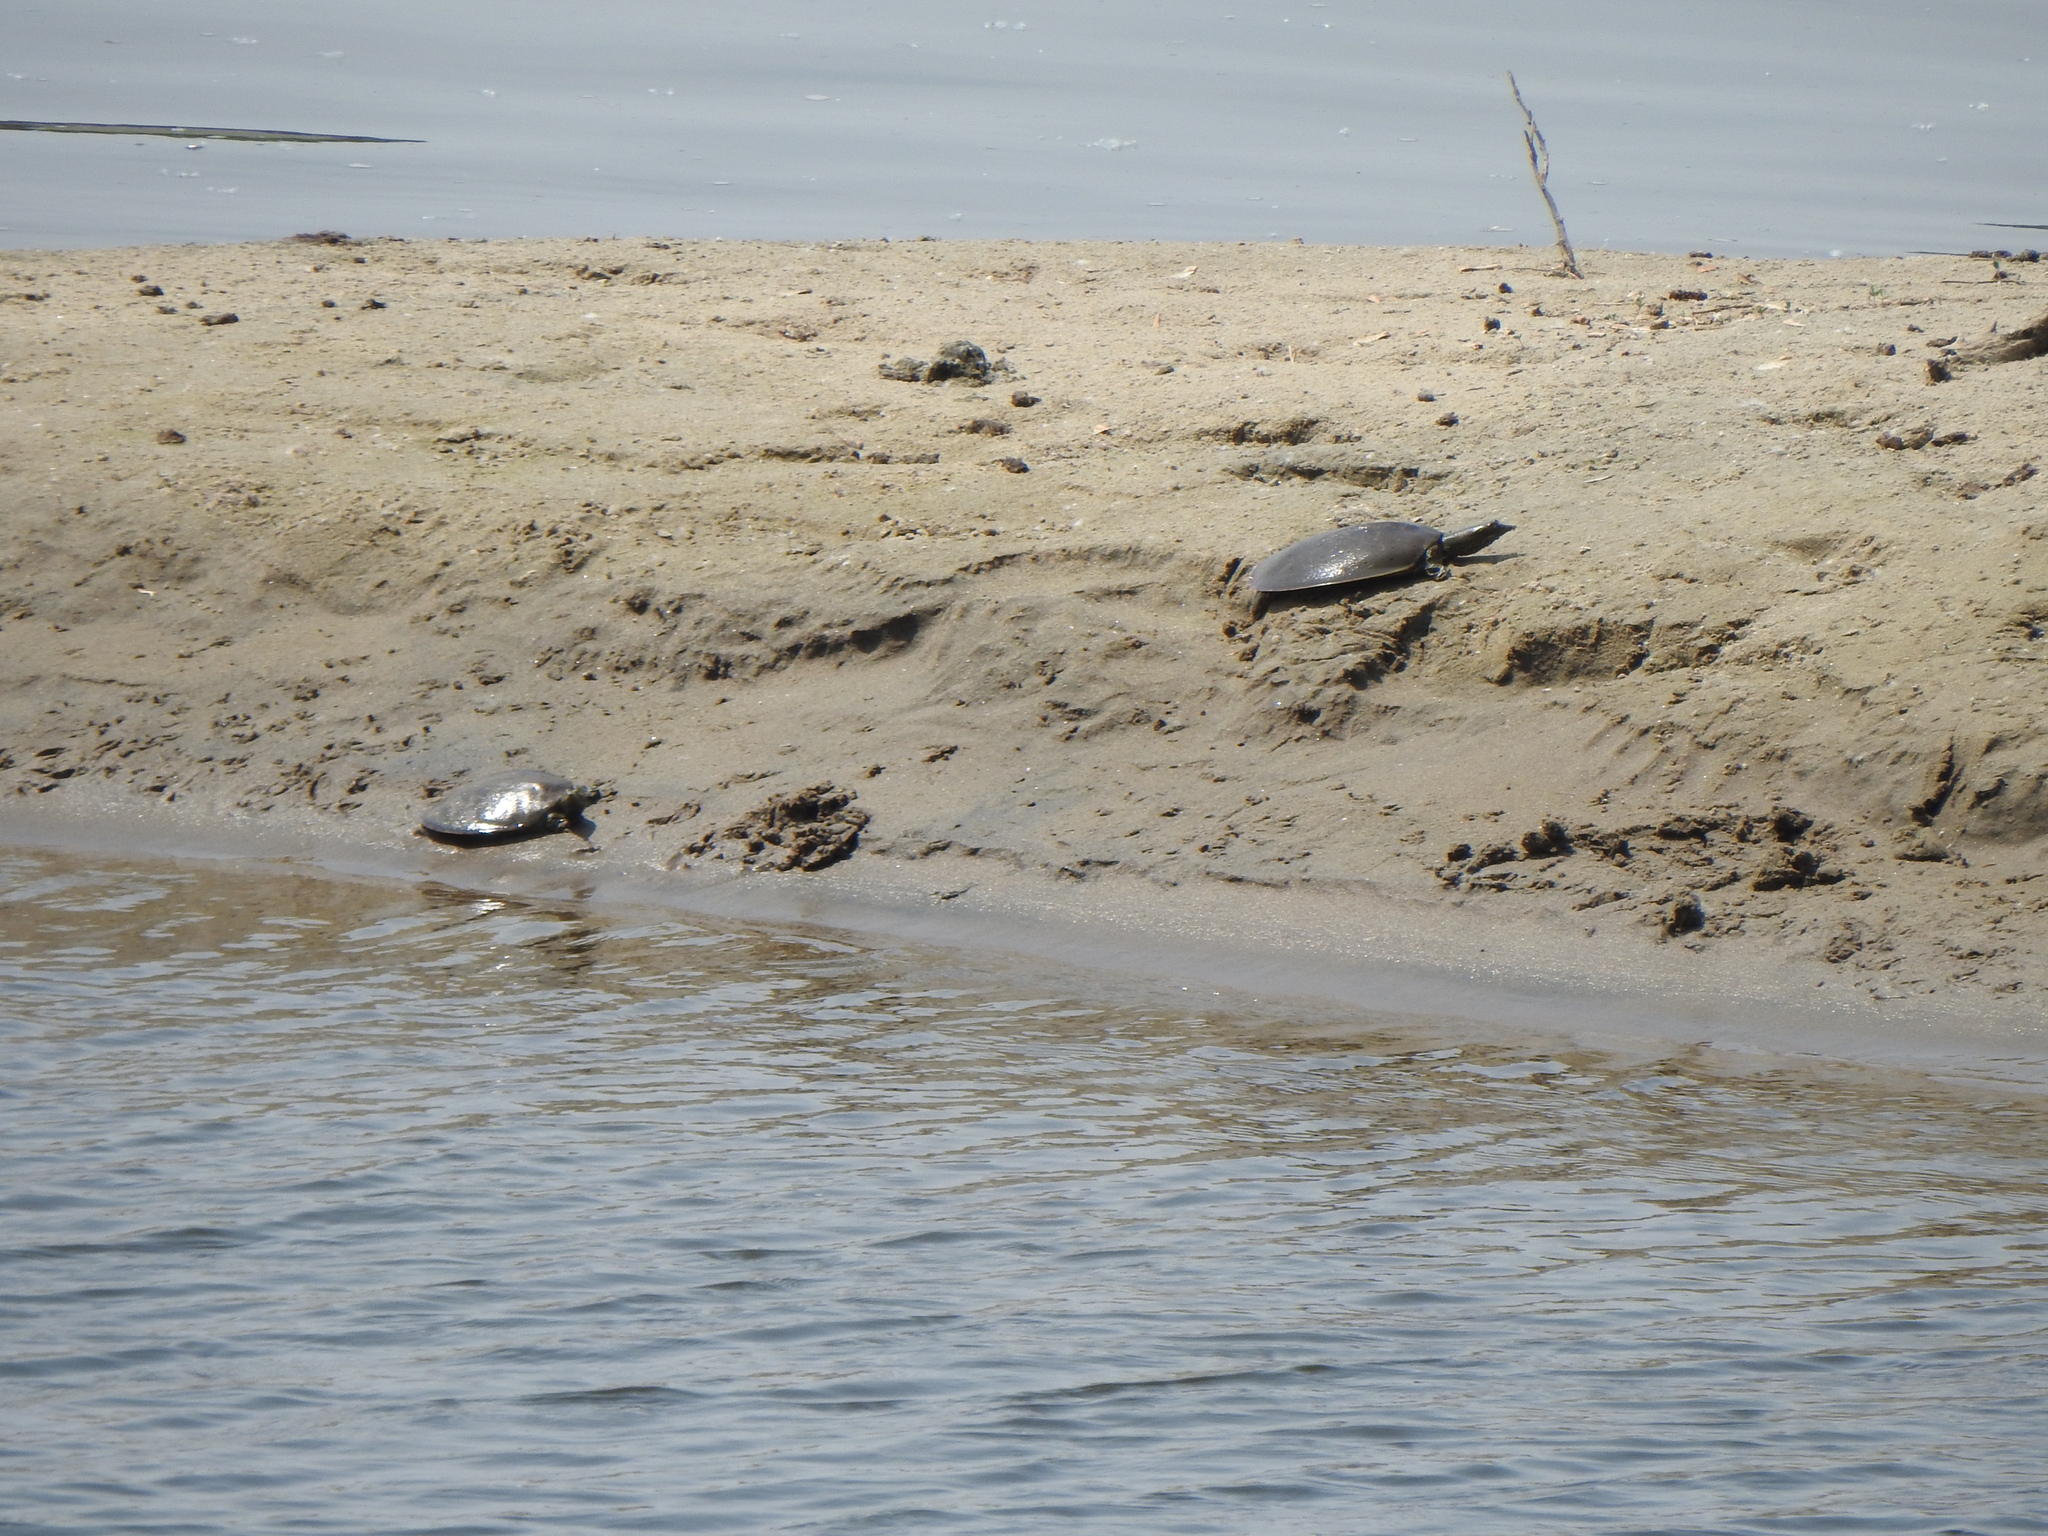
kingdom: Animalia
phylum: Chordata
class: Testudines
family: Trionychidae
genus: Apalone
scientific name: Apalone spinifera
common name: Spiny softshell turtle
